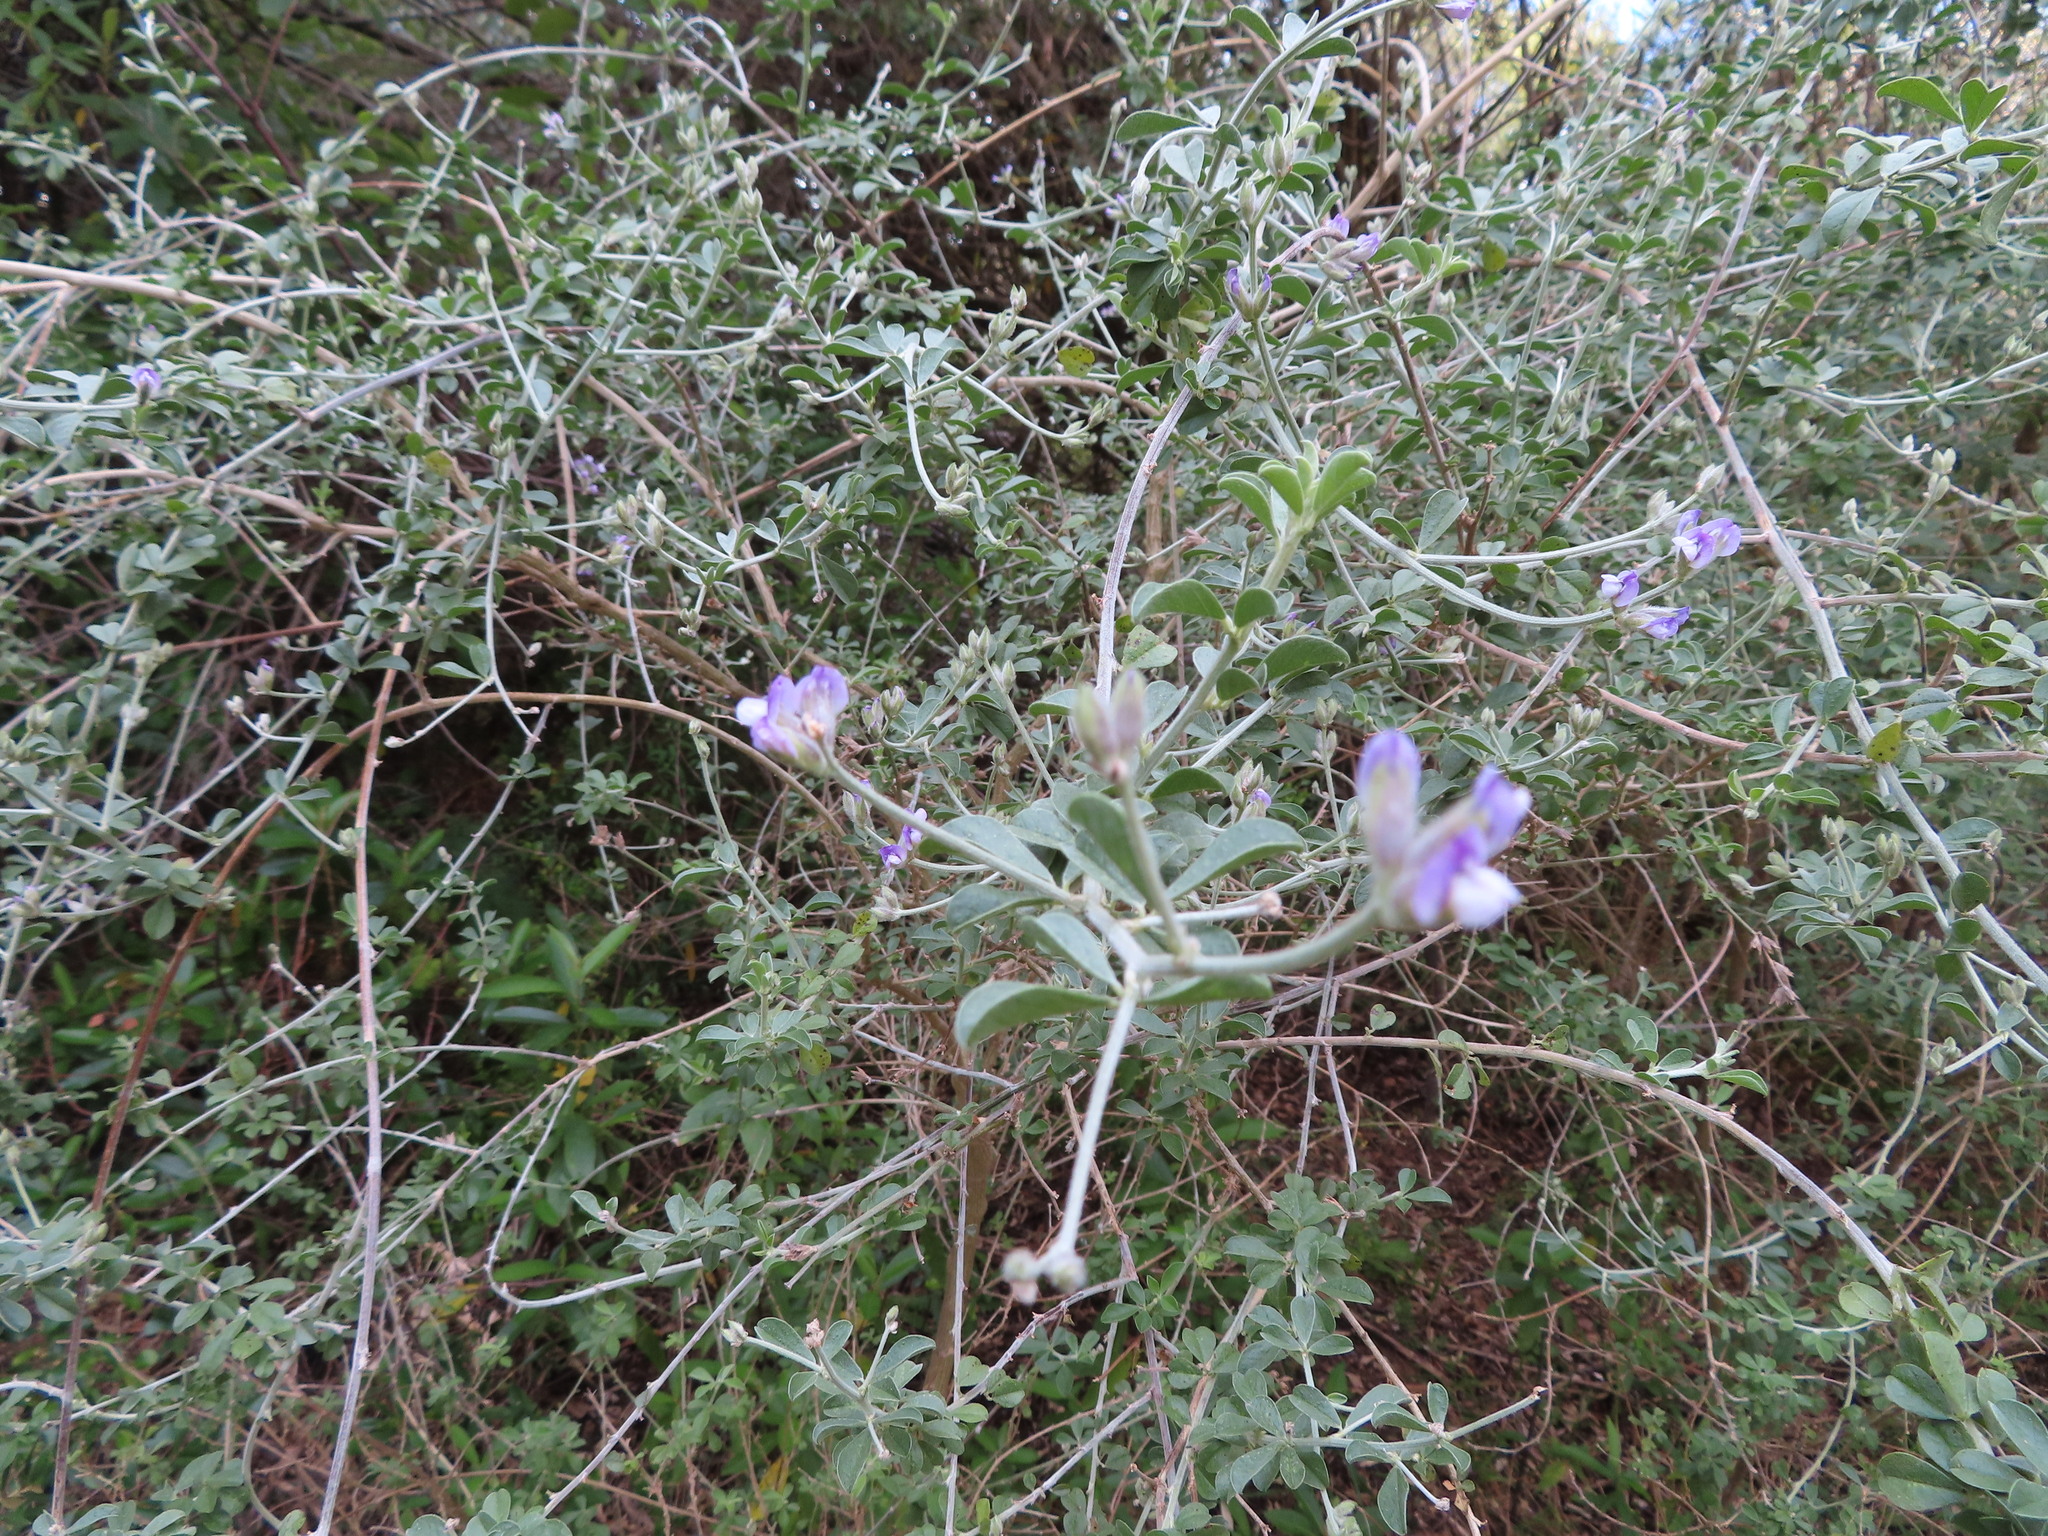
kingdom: Plantae
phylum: Tracheophyta
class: Magnoliopsida
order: Fabales
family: Fabaceae
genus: Psoralea
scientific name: Psoralea hirta
